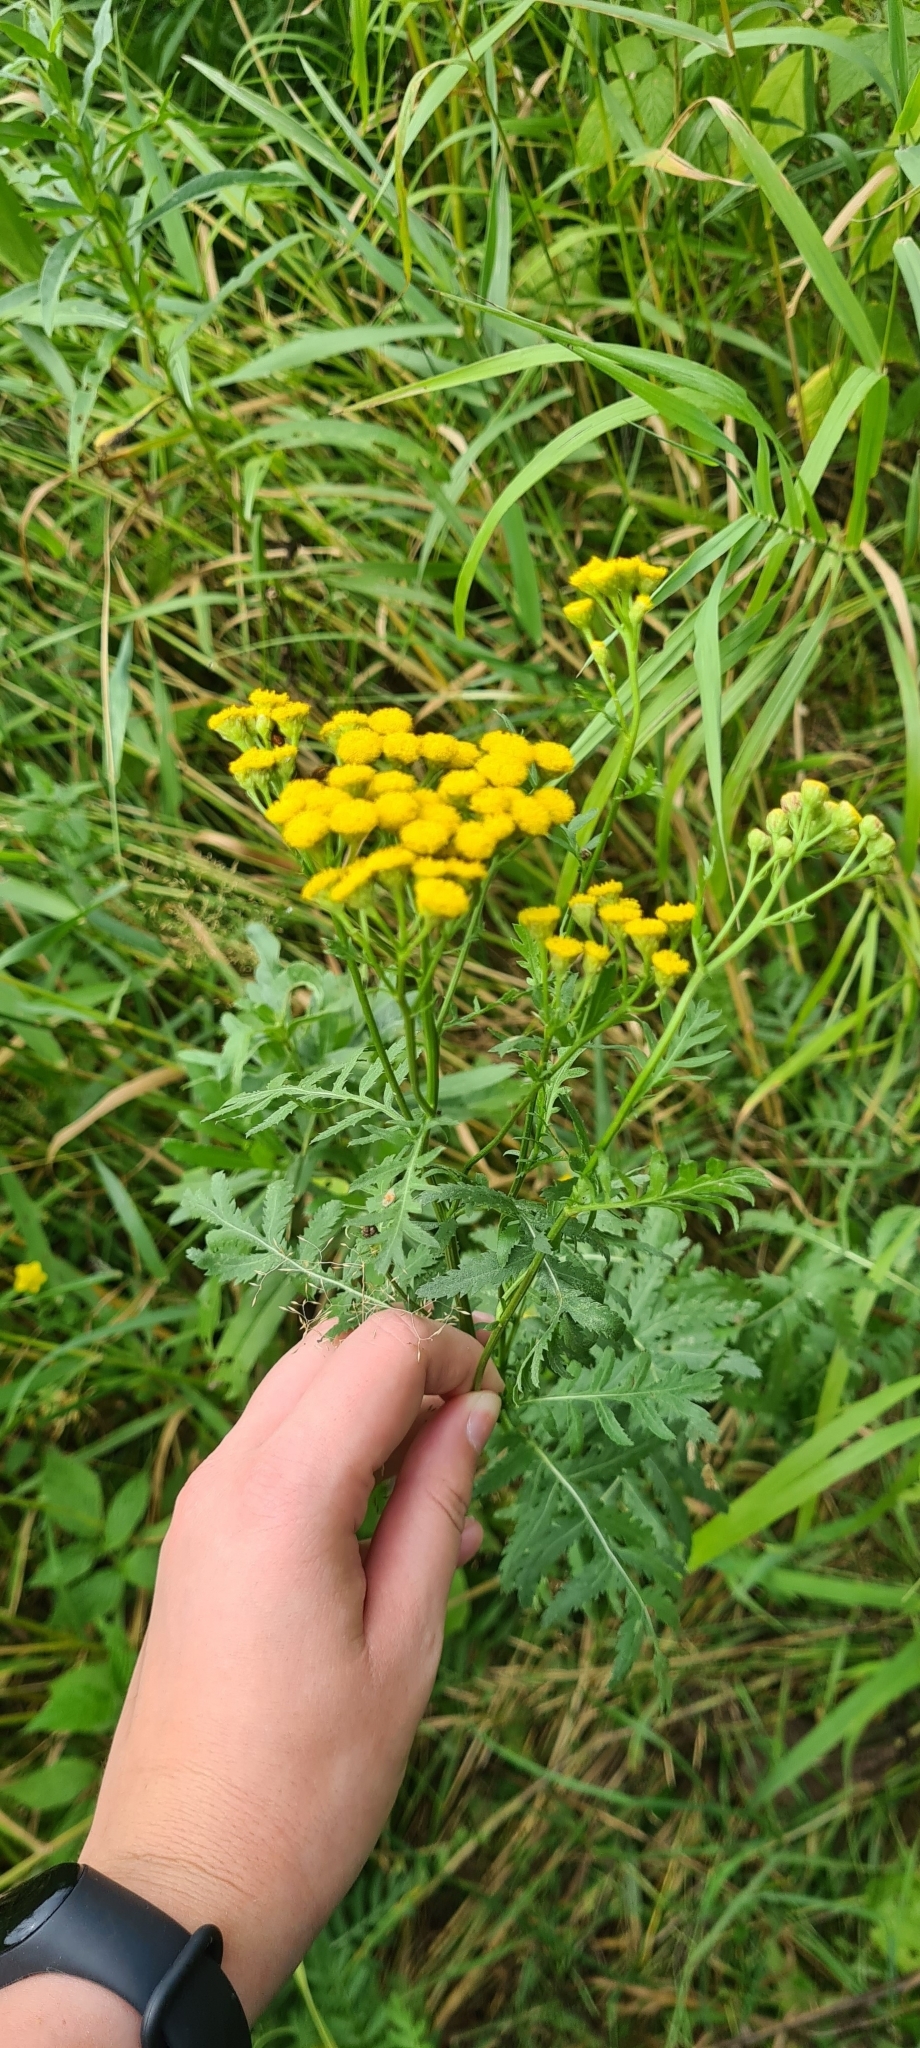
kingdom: Plantae
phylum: Tracheophyta
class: Magnoliopsida
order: Asterales
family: Asteraceae
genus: Tanacetum
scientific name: Tanacetum vulgare
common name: Common tansy
